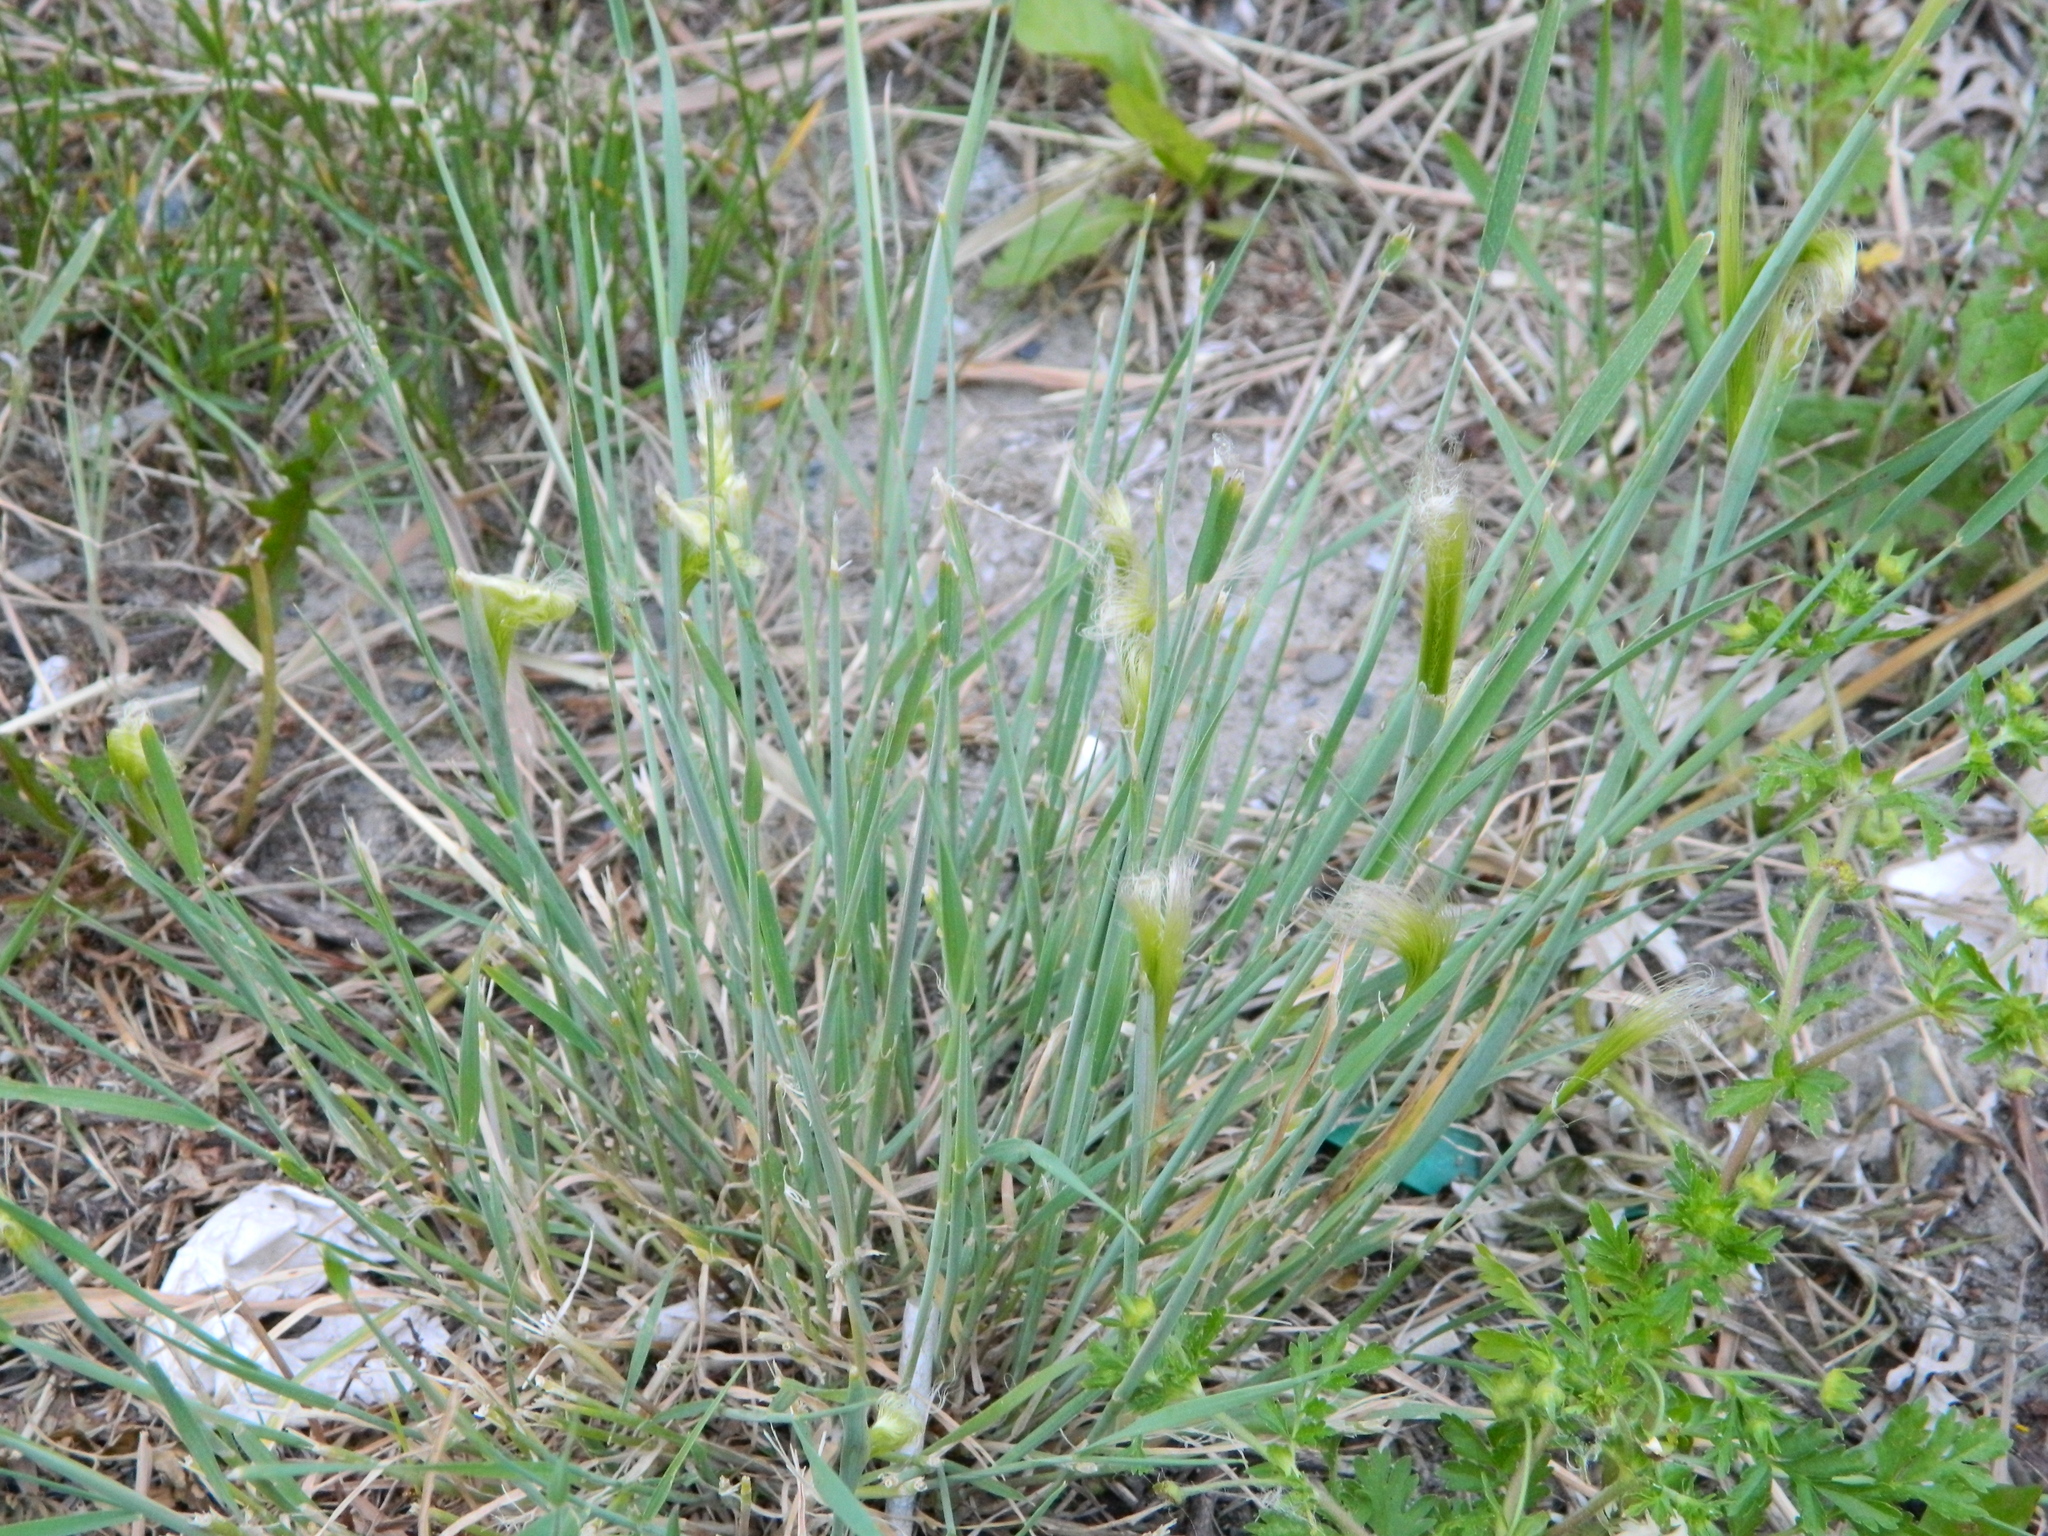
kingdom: Plantae
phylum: Tracheophyta
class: Liliopsida
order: Poales
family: Poaceae
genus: Hordeum
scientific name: Hordeum jubatum
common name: Foxtail barley
